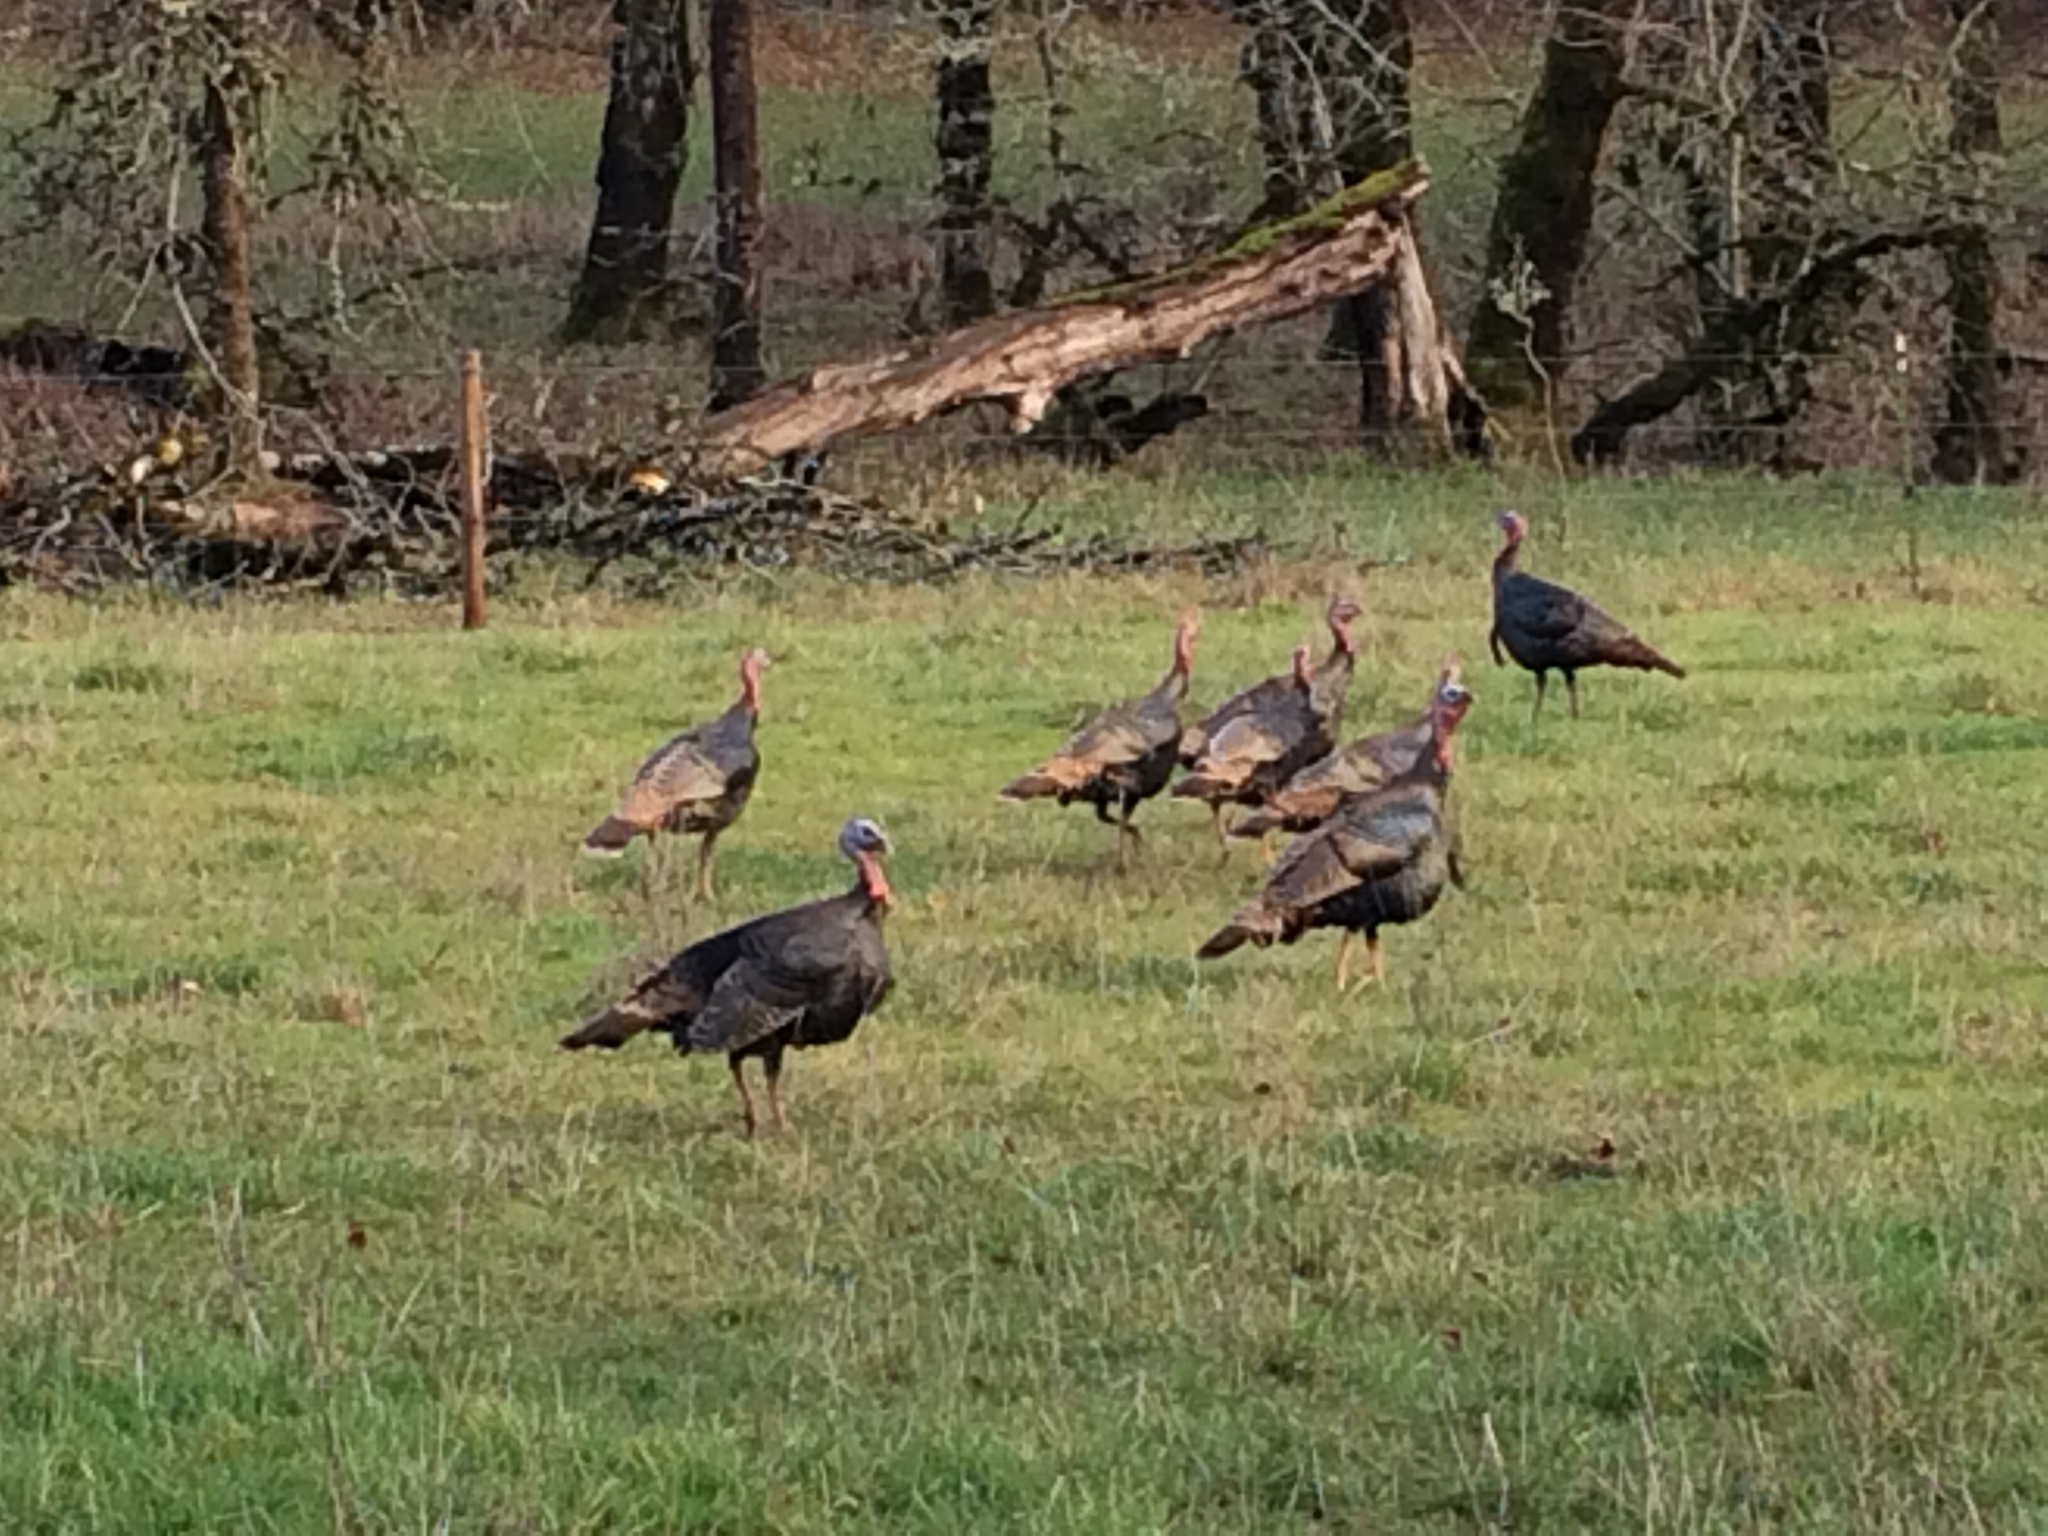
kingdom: Animalia
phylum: Chordata
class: Aves
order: Galliformes
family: Phasianidae
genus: Meleagris
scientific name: Meleagris gallopavo
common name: Wild turkey
